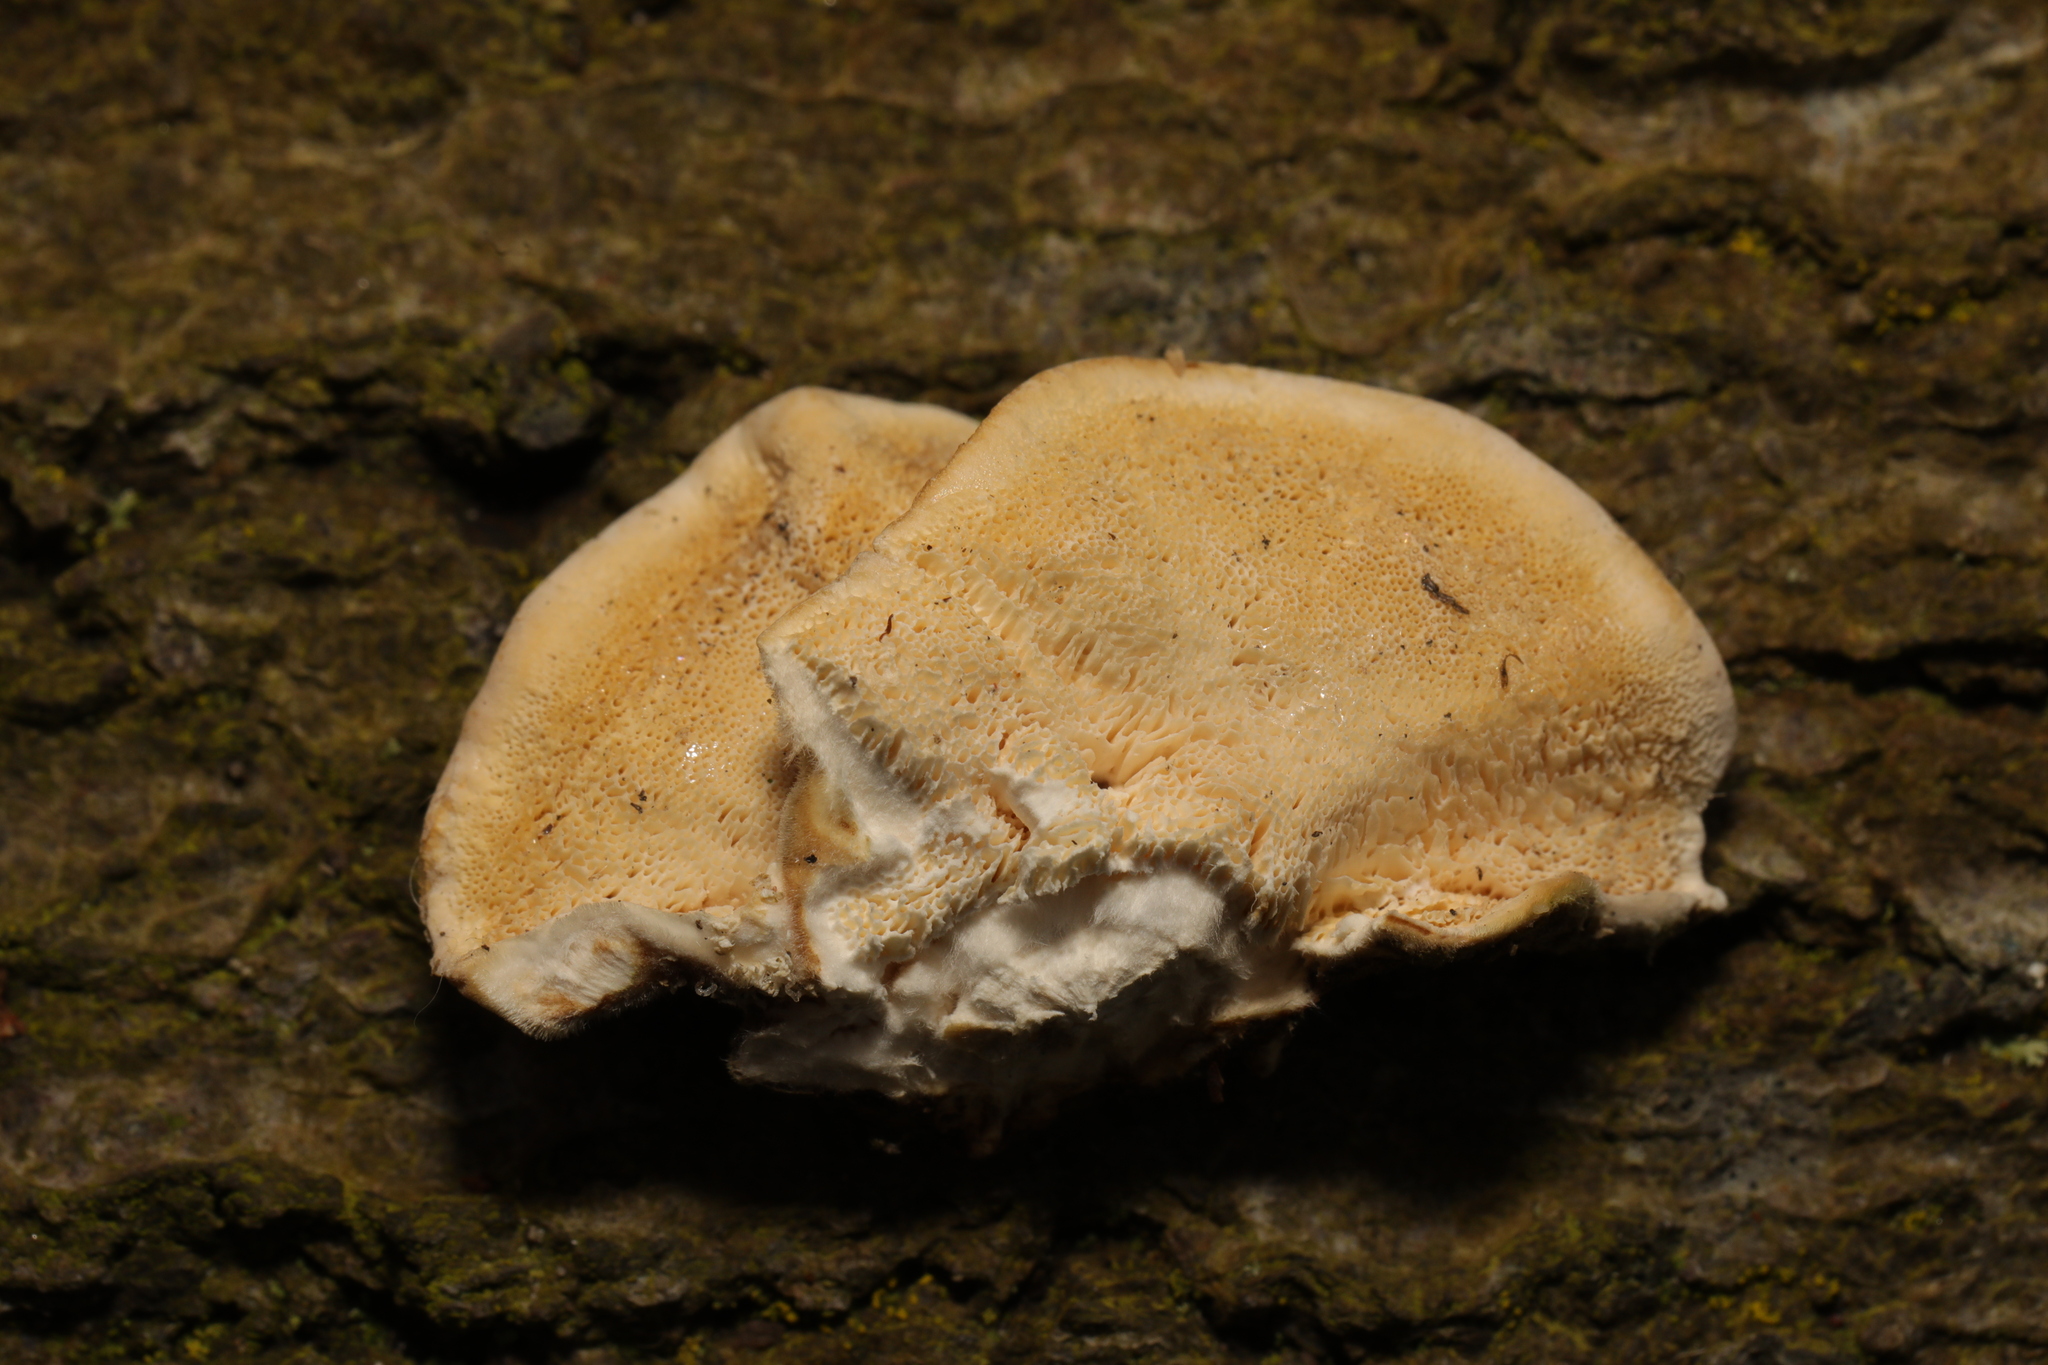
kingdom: Fungi
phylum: Basidiomycota
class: Agaricomycetes
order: Polyporales
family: Polyporaceae
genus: Trametes
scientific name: Trametes versicolor
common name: Turkeytail
